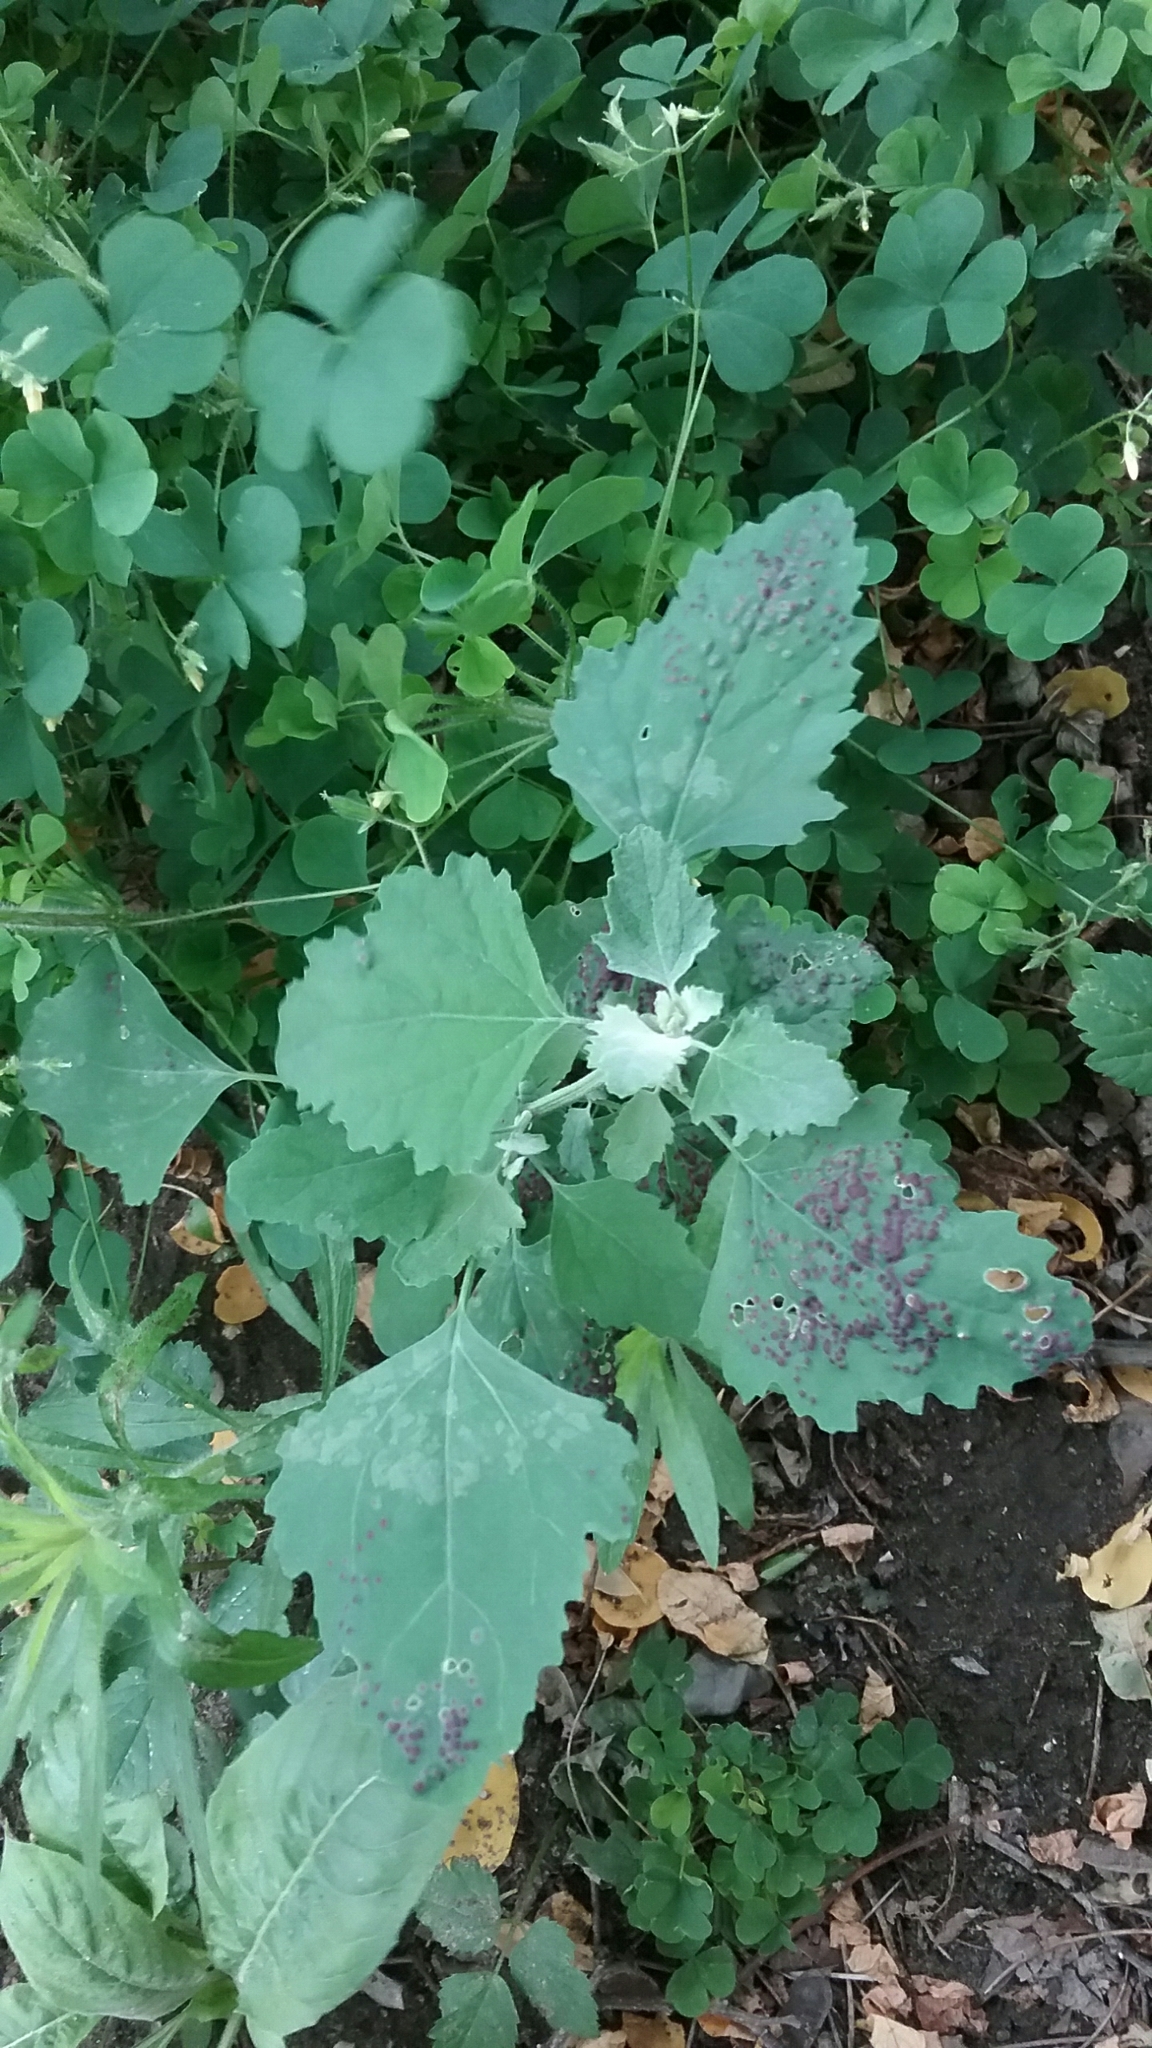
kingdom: Plantae
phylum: Tracheophyta
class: Magnoliopsida
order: Caryophyllales
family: Amaranthaceae
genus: Chenopodium
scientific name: Chenopodium album
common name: Fat-hen
